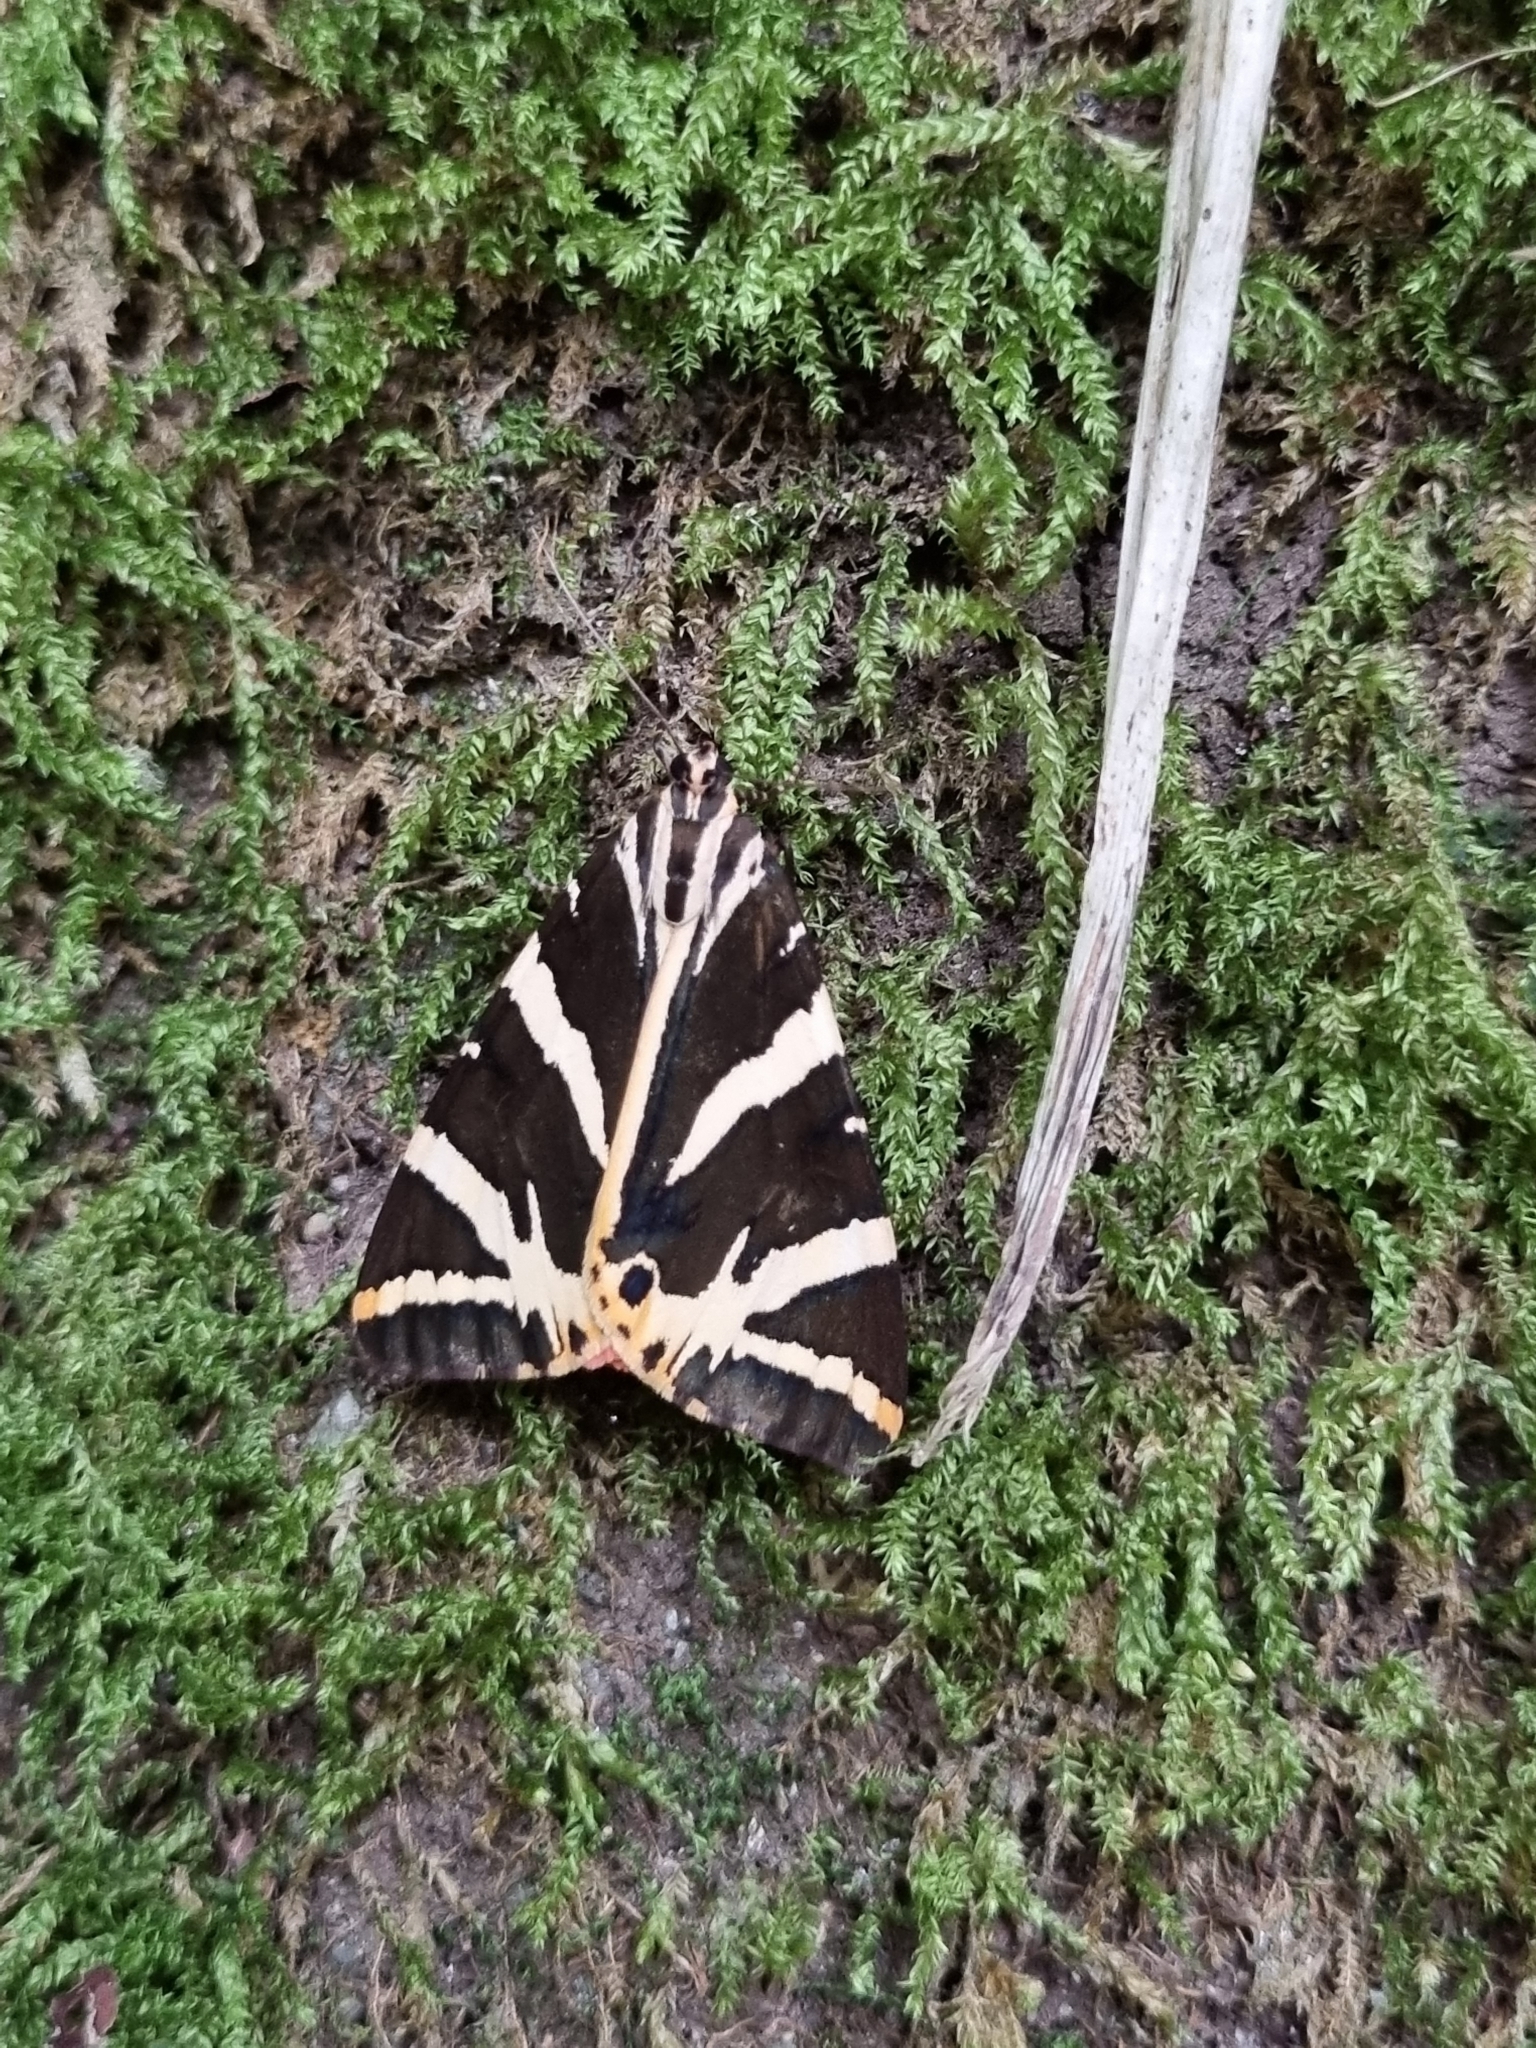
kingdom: Animalia
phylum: Arthropoda
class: Insecta
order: Lepidoptera
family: Erebidae
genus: Euplagia
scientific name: Euplagia quadripunctaria
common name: Jersey tiger
